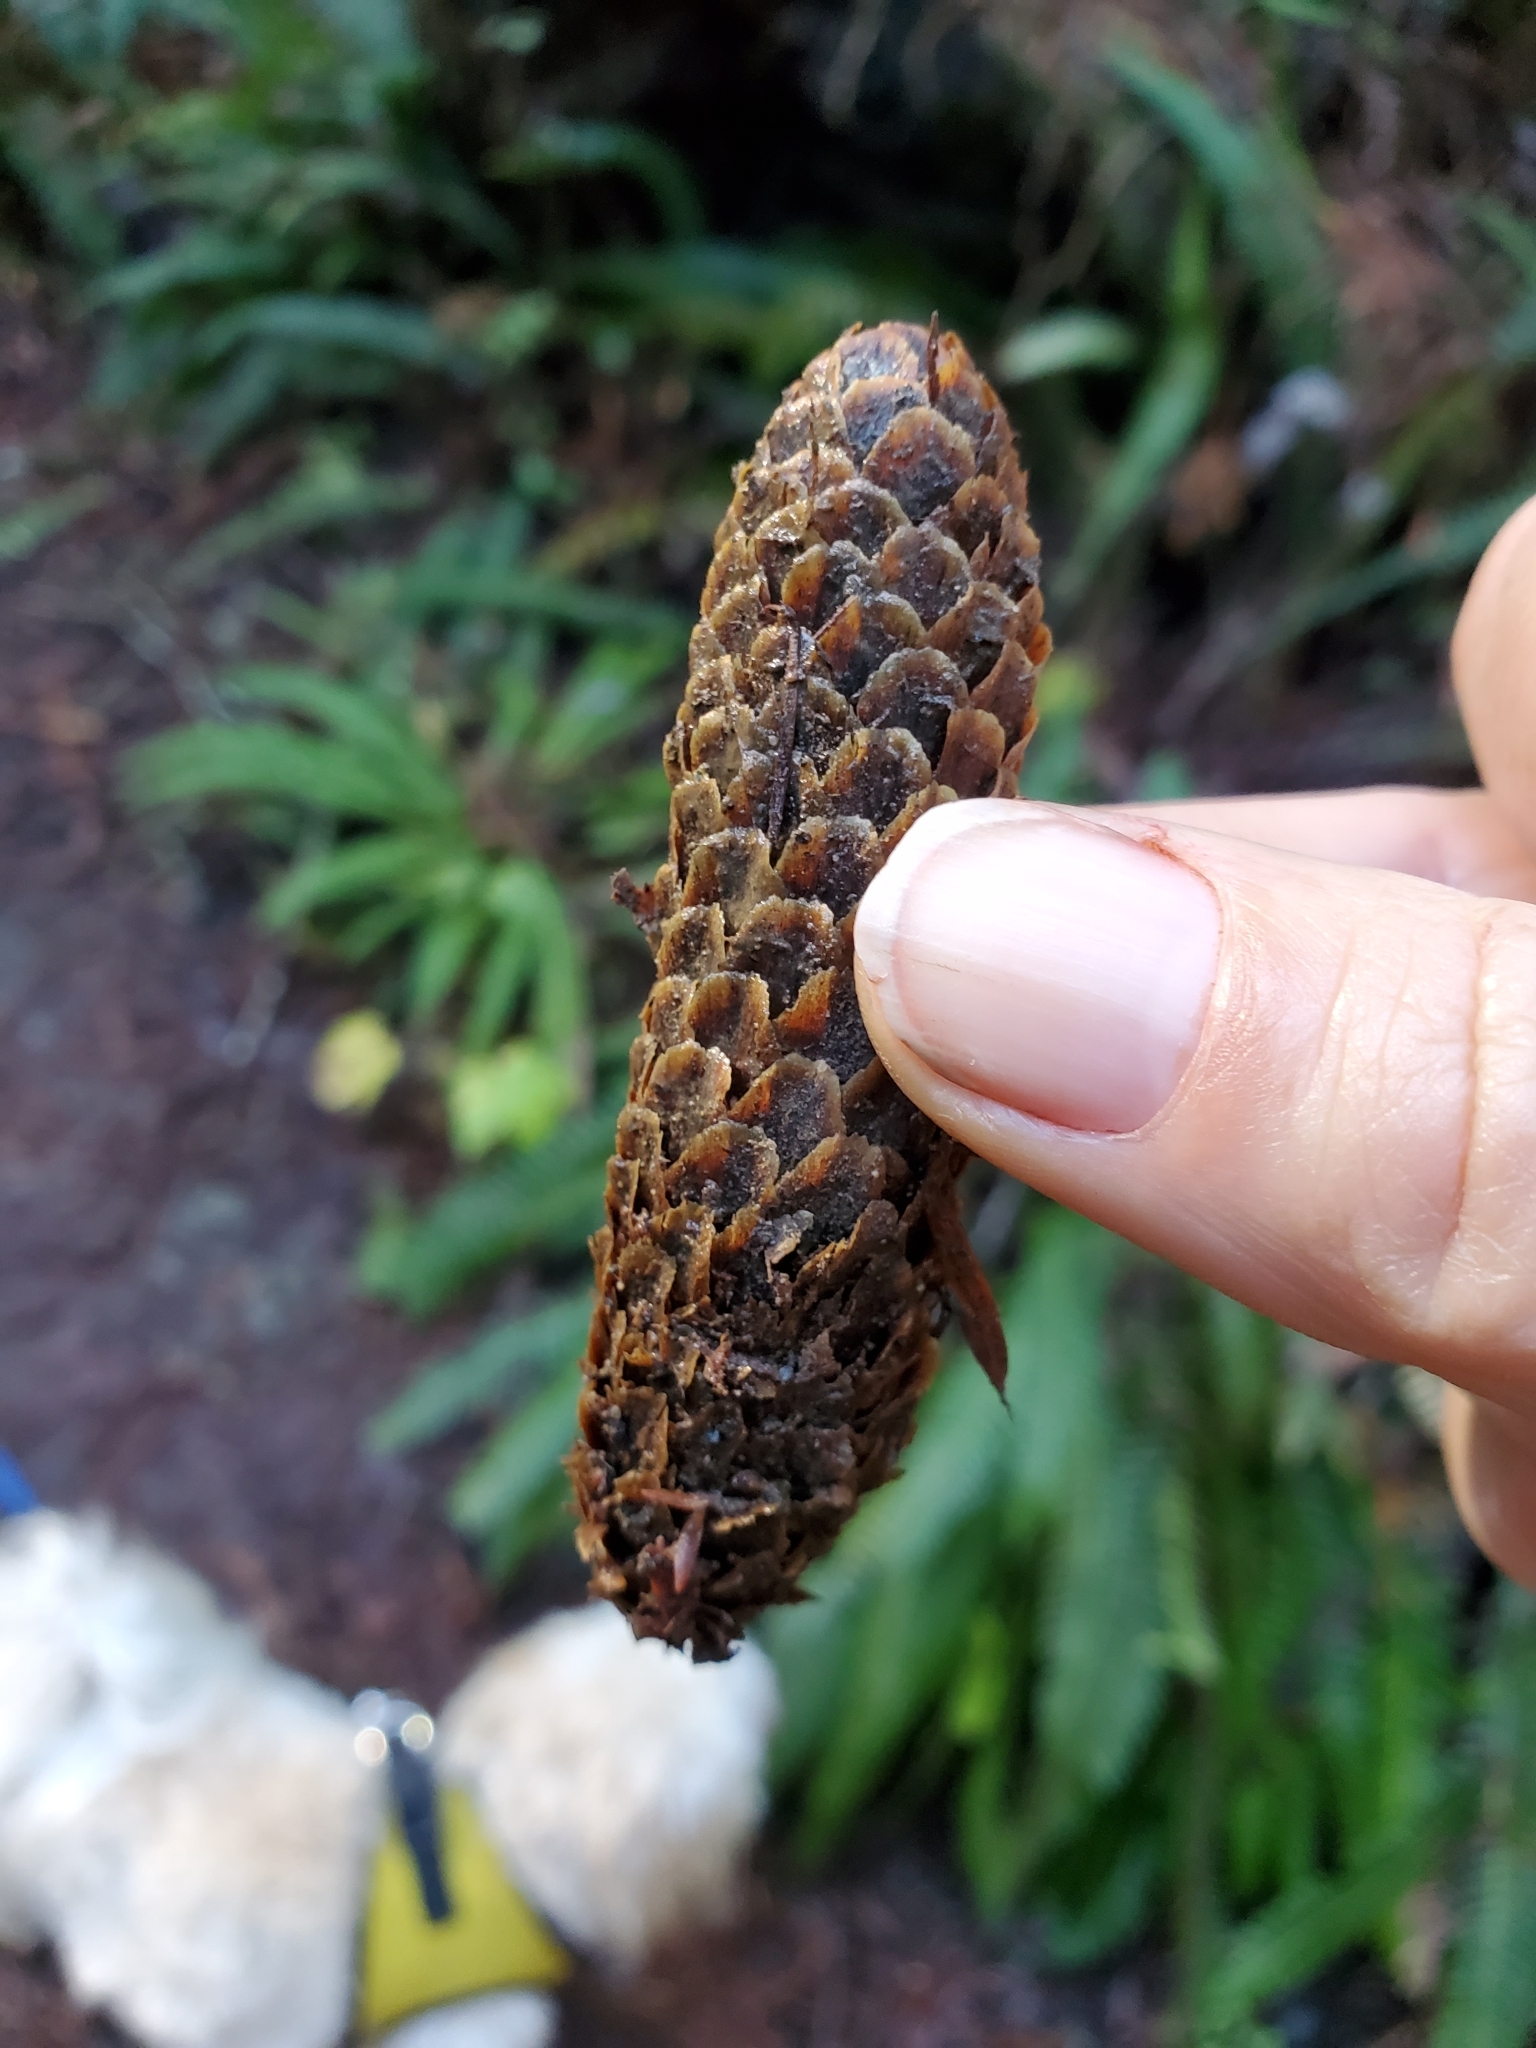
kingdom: Plantae
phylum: Tracheophyta
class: Pinopsida
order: Pinales
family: Pinaceae
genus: Picea
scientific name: Picea sitchensis
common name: Sitka spruce
